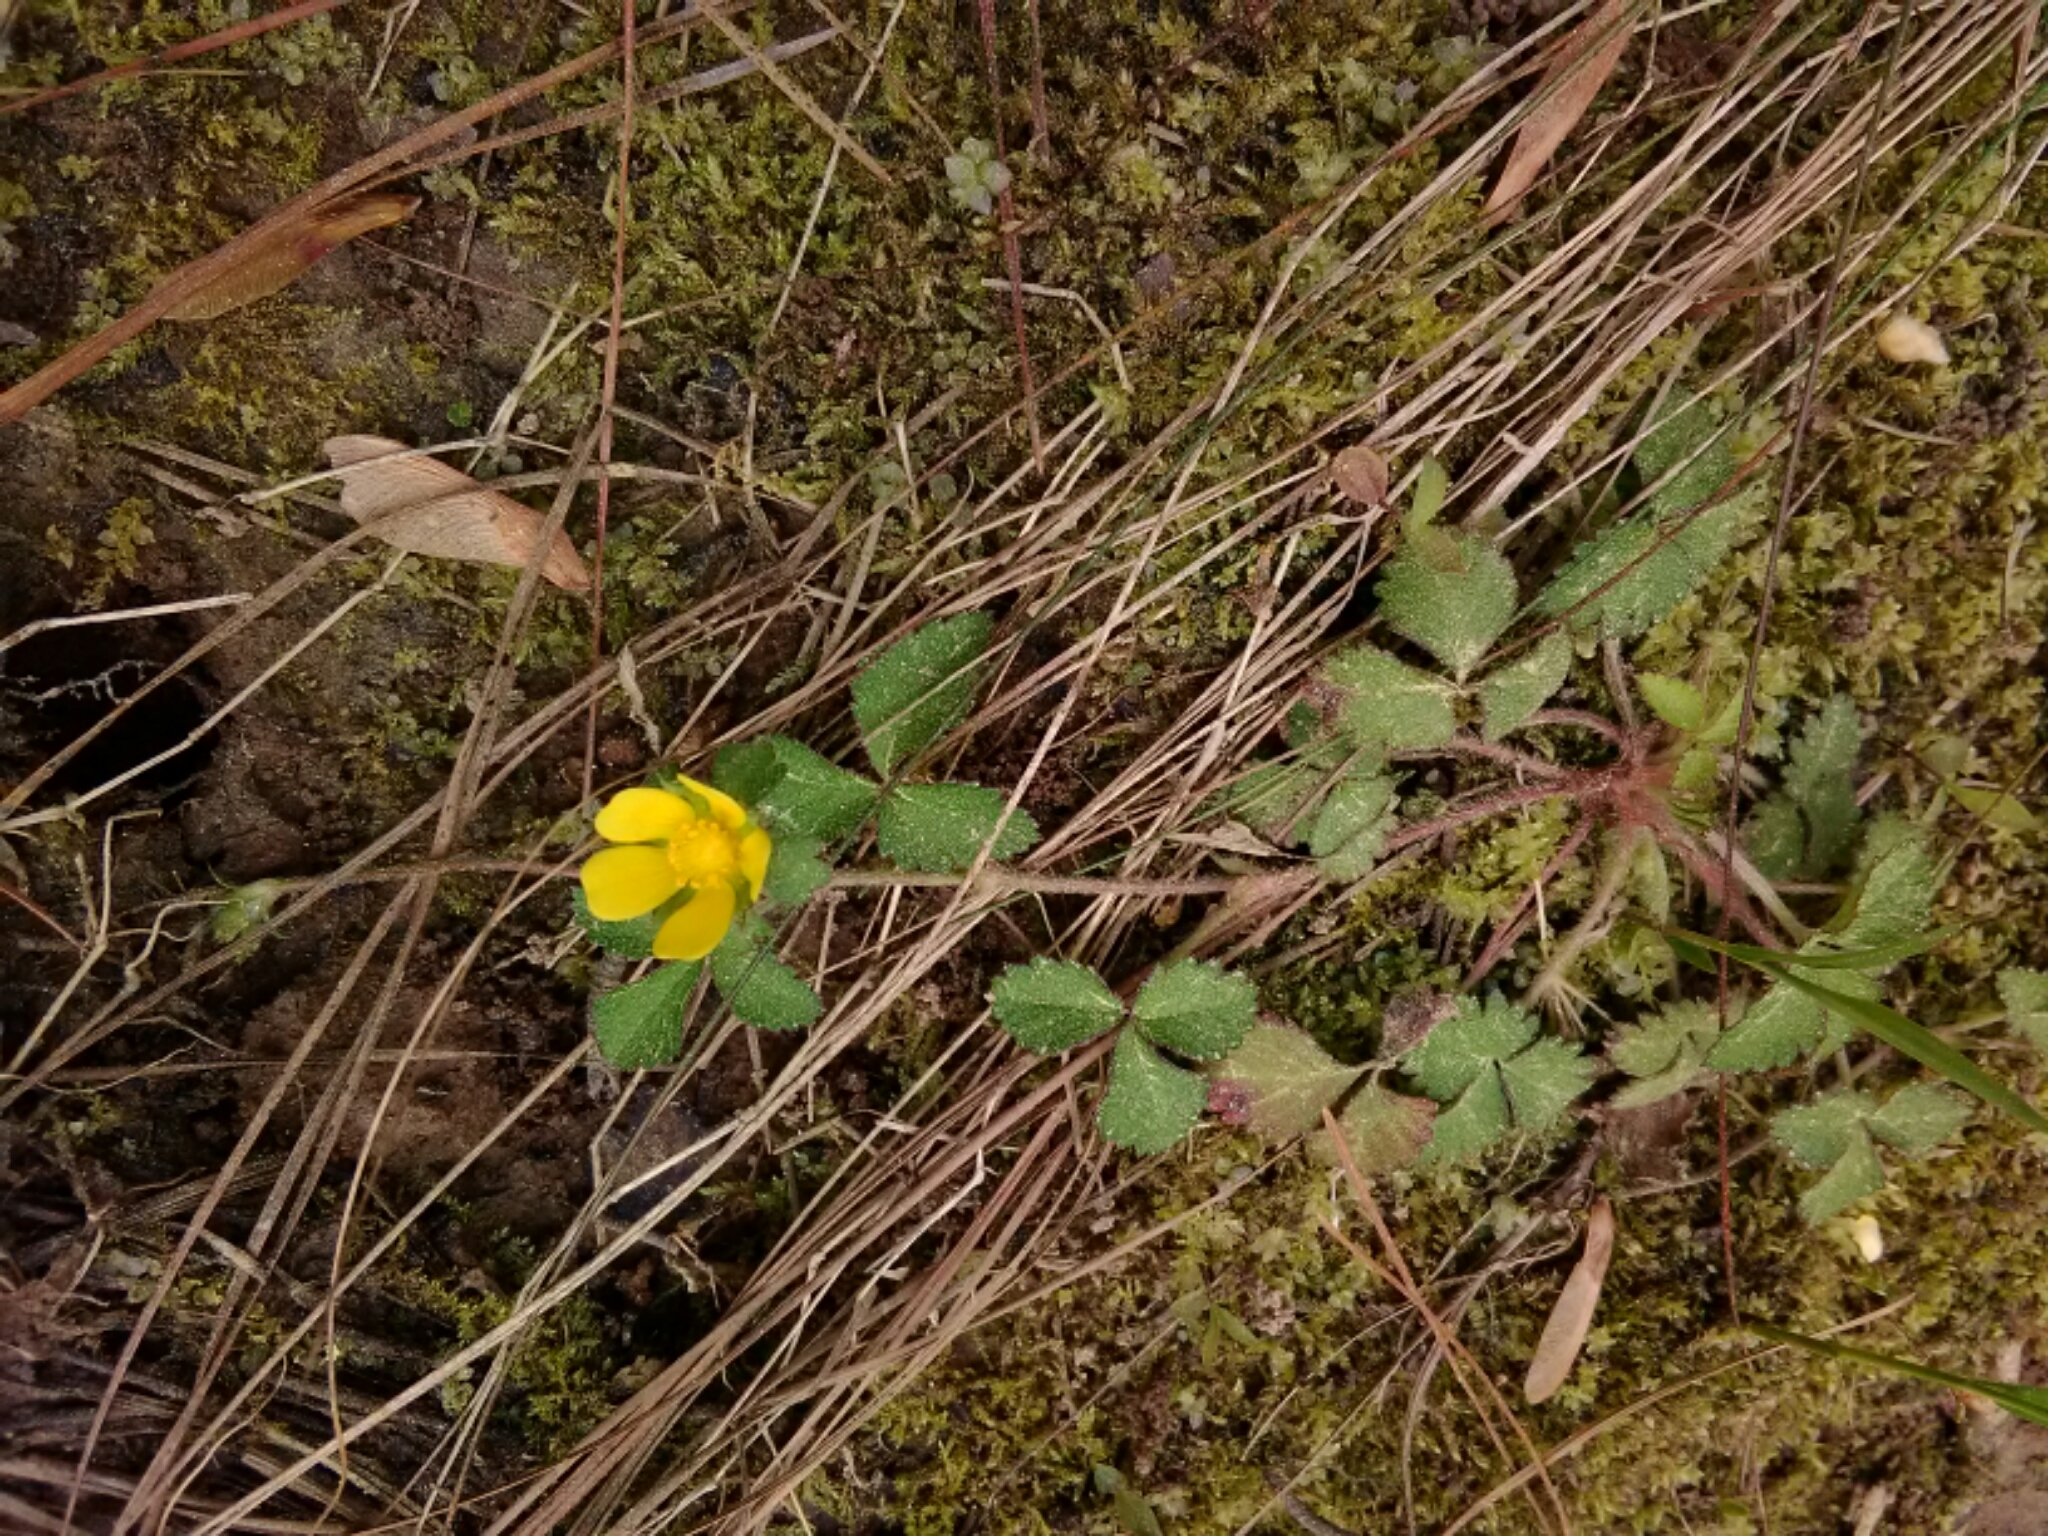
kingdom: Plantae
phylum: Tracheophyta
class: Magnoliopsida
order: Rosales
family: Rosaceae
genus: Potentilla
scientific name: Potentilla indica
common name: Yellow-flowered strawberry
